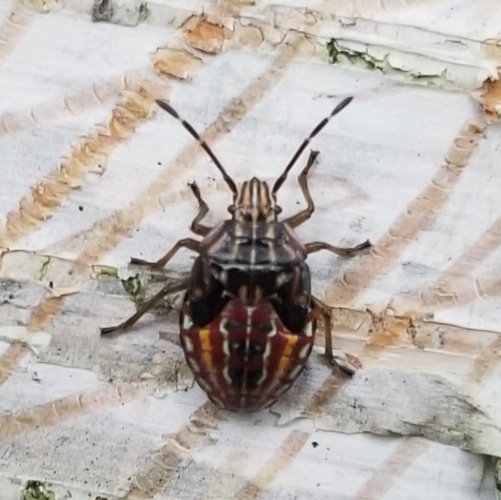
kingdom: Animalia
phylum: Arthropoda
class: Insecta
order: Hemiptera
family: Acanthosomatidae
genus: Elasmucha
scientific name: Elasmucha lateralis
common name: Shield bug
